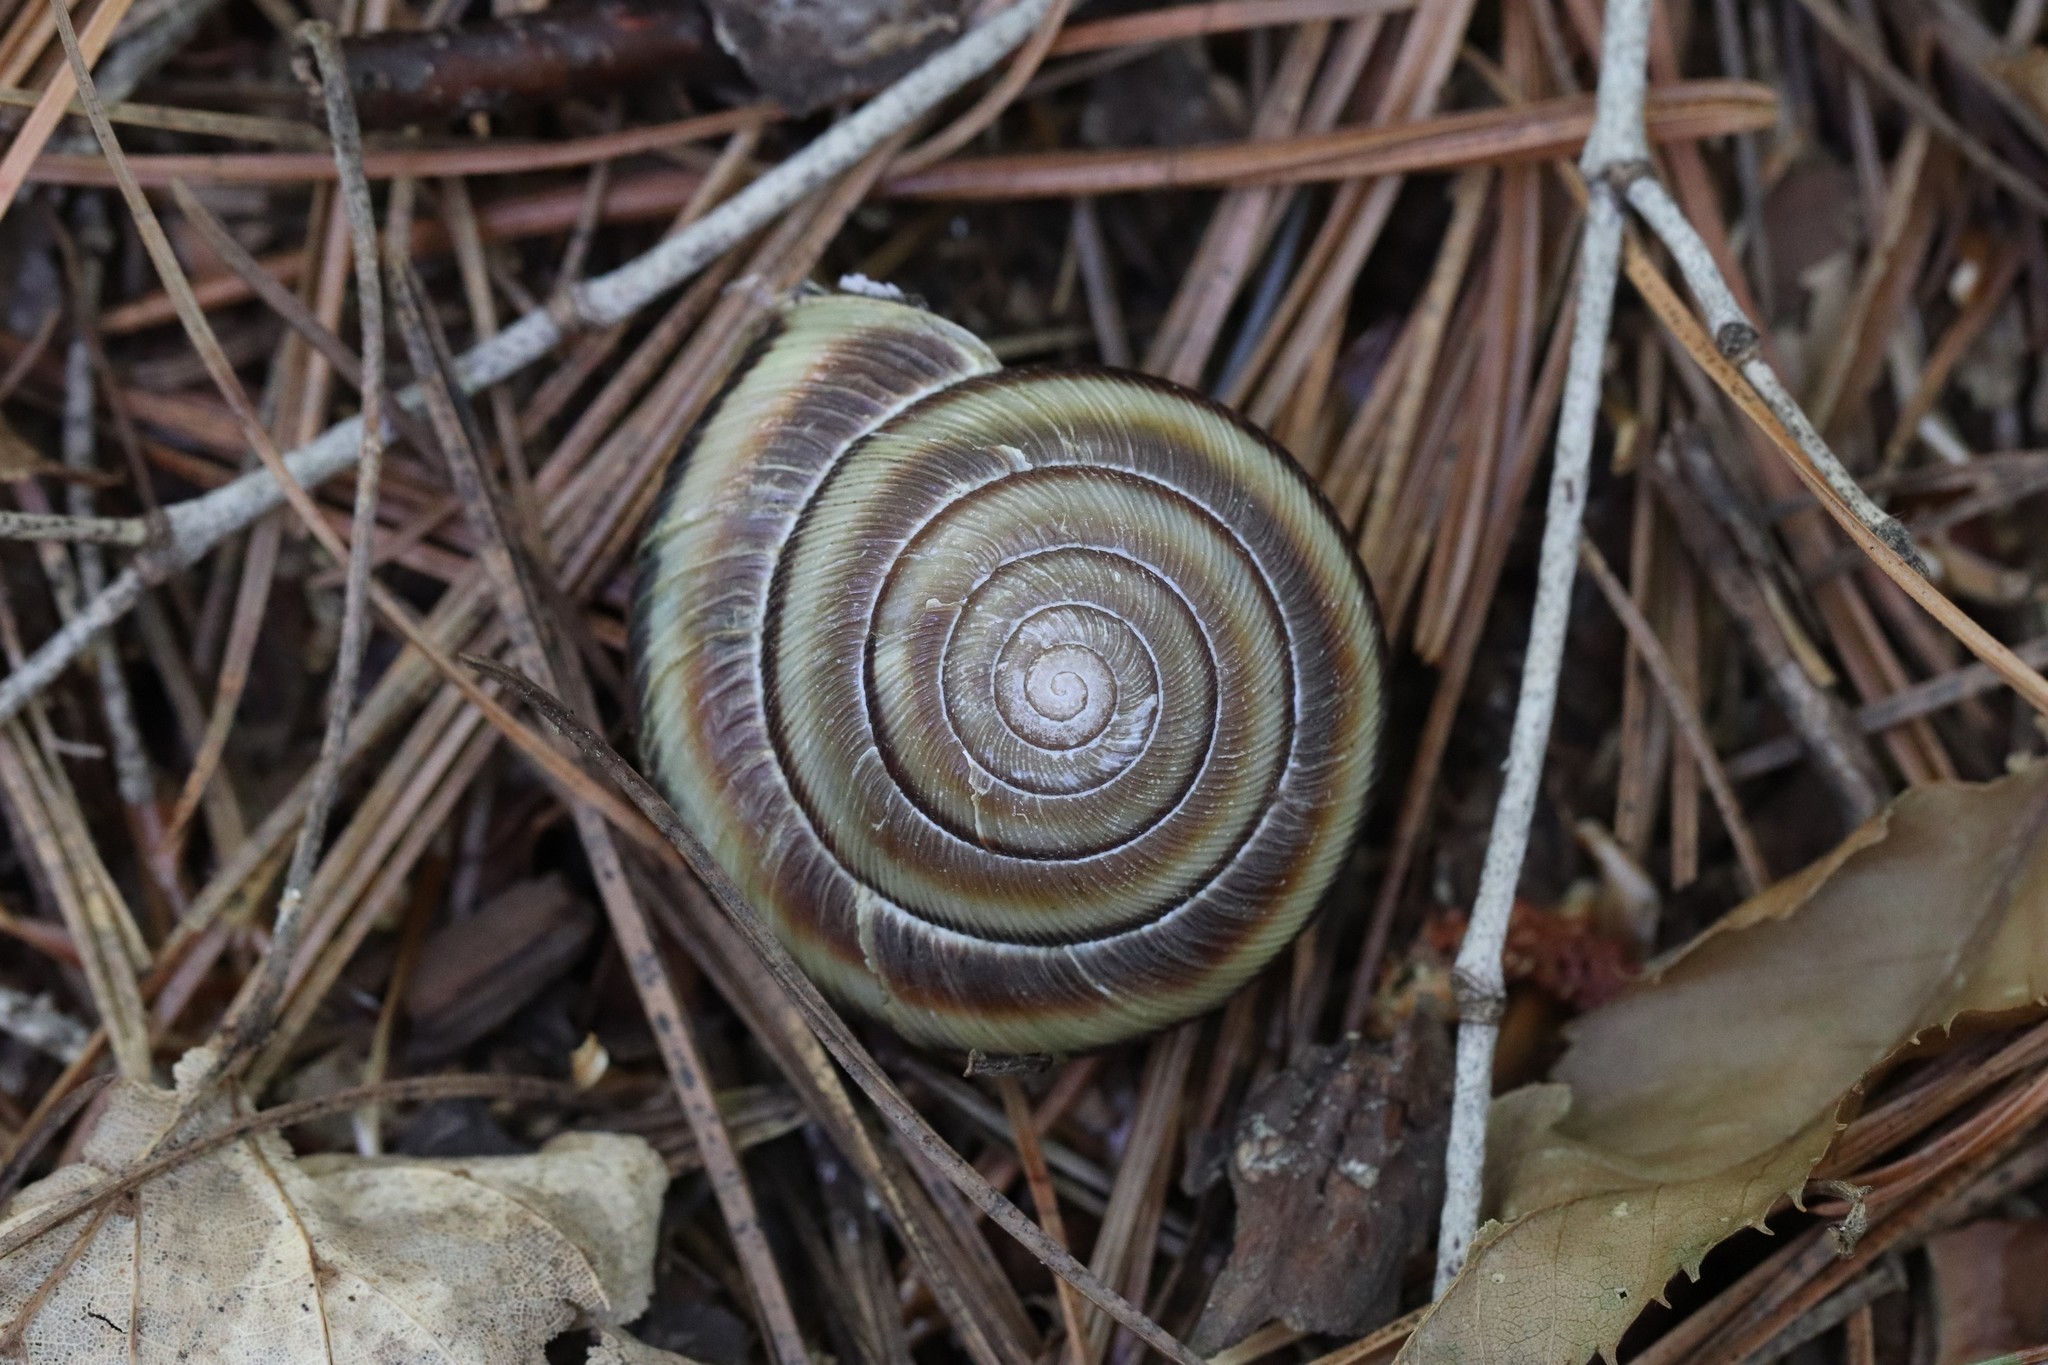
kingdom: Animalia
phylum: Mollusca
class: Gastropoda
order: Stylommatophora
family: Camaenidae
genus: Karaftohelix
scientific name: Karaftohelix maackii
